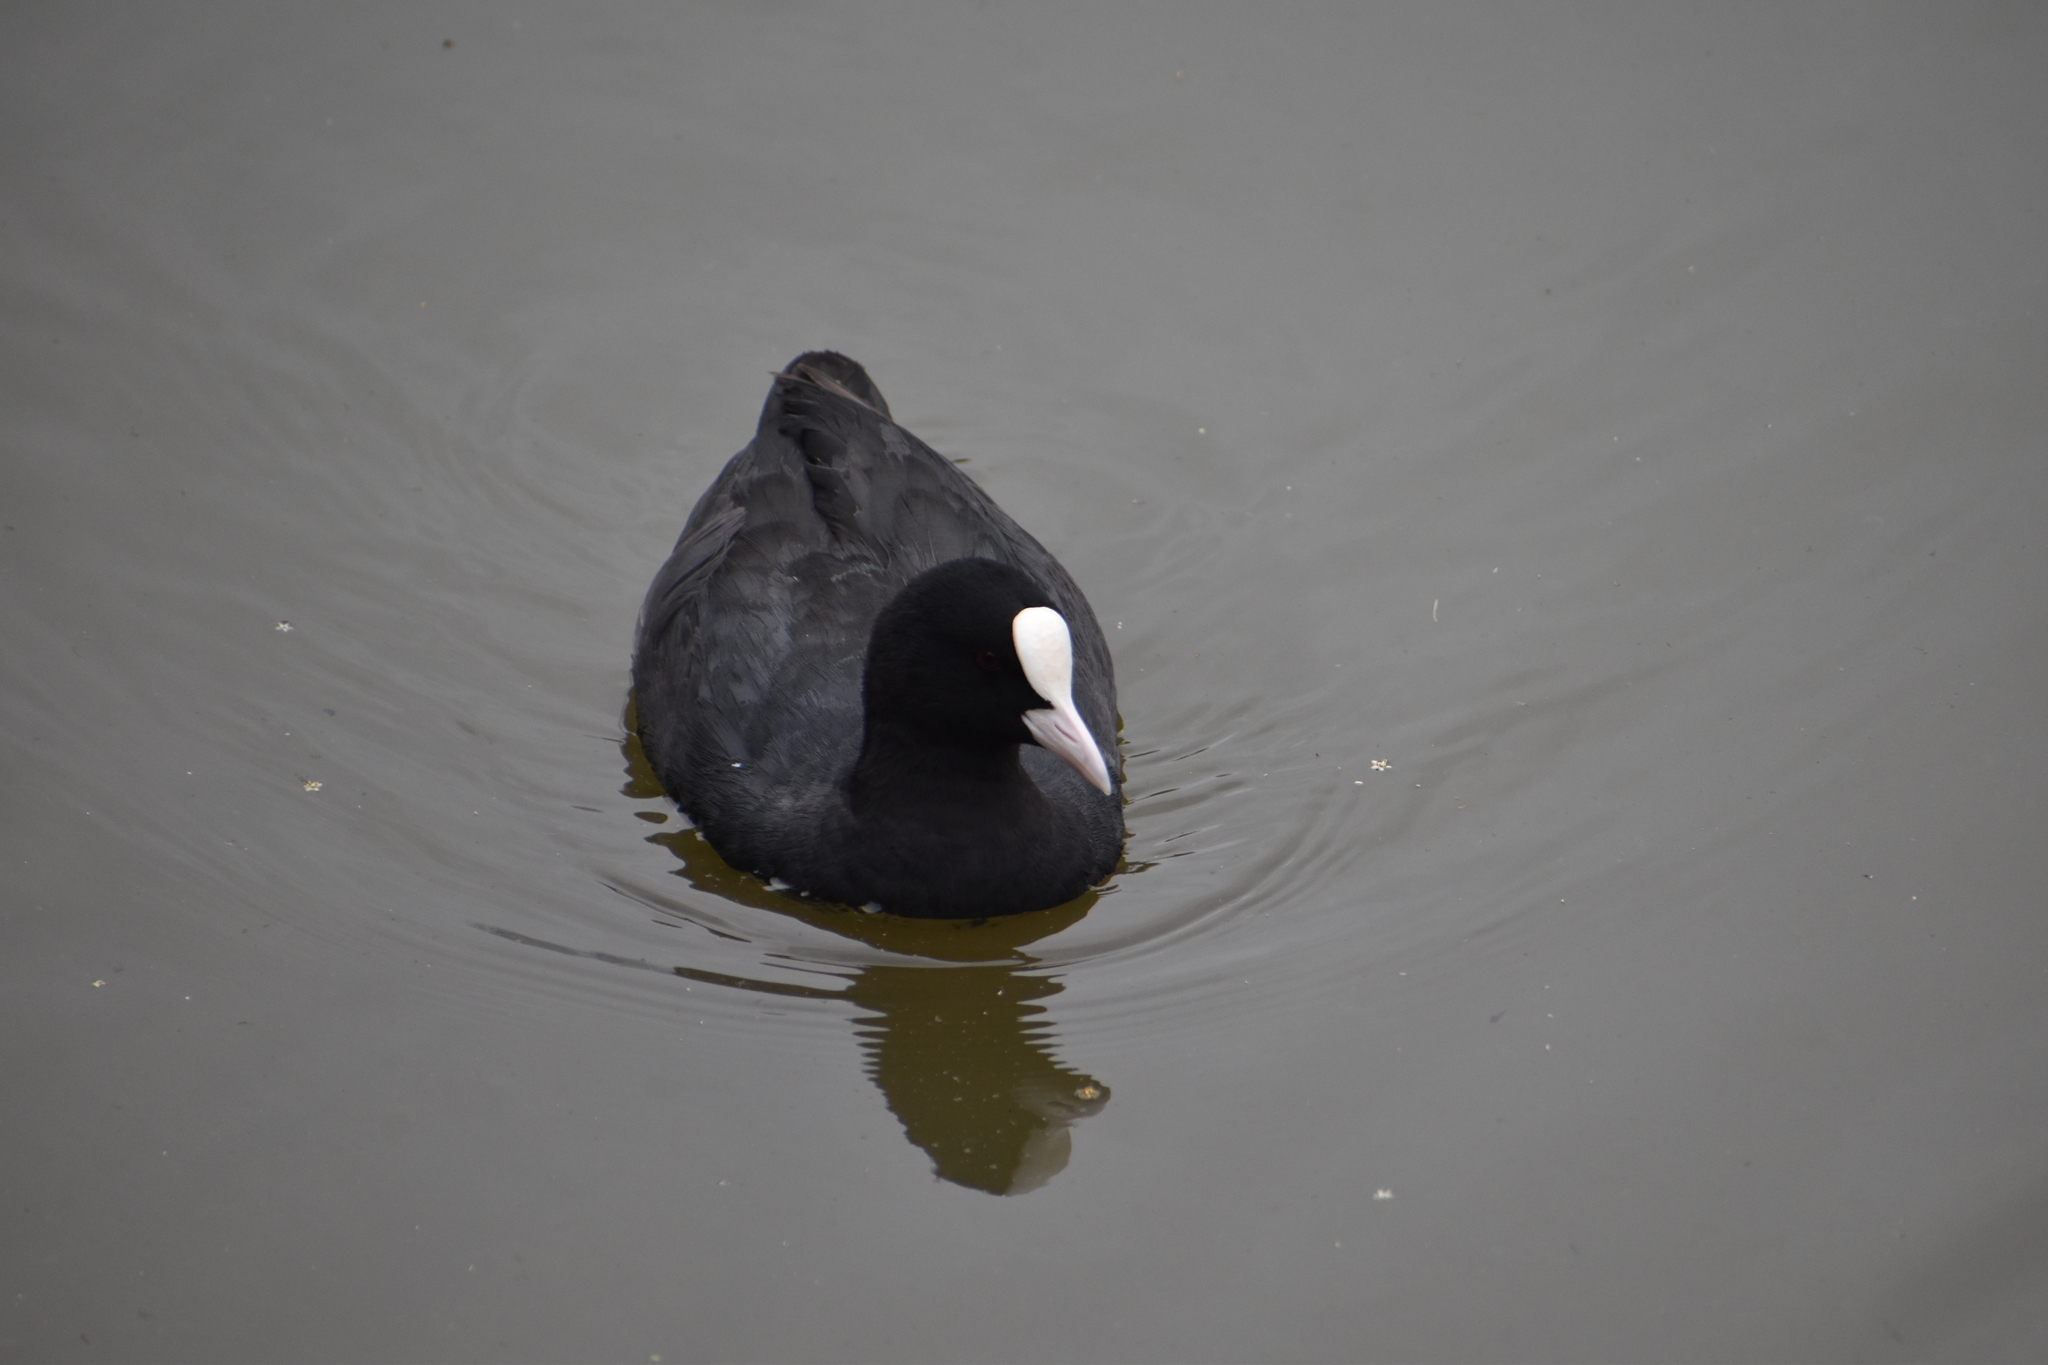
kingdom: Animalia
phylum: Chordata
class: Aves
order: Gruiformes
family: Rallidae
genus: Fulica
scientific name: Fulica atra
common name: Eurasian coot
